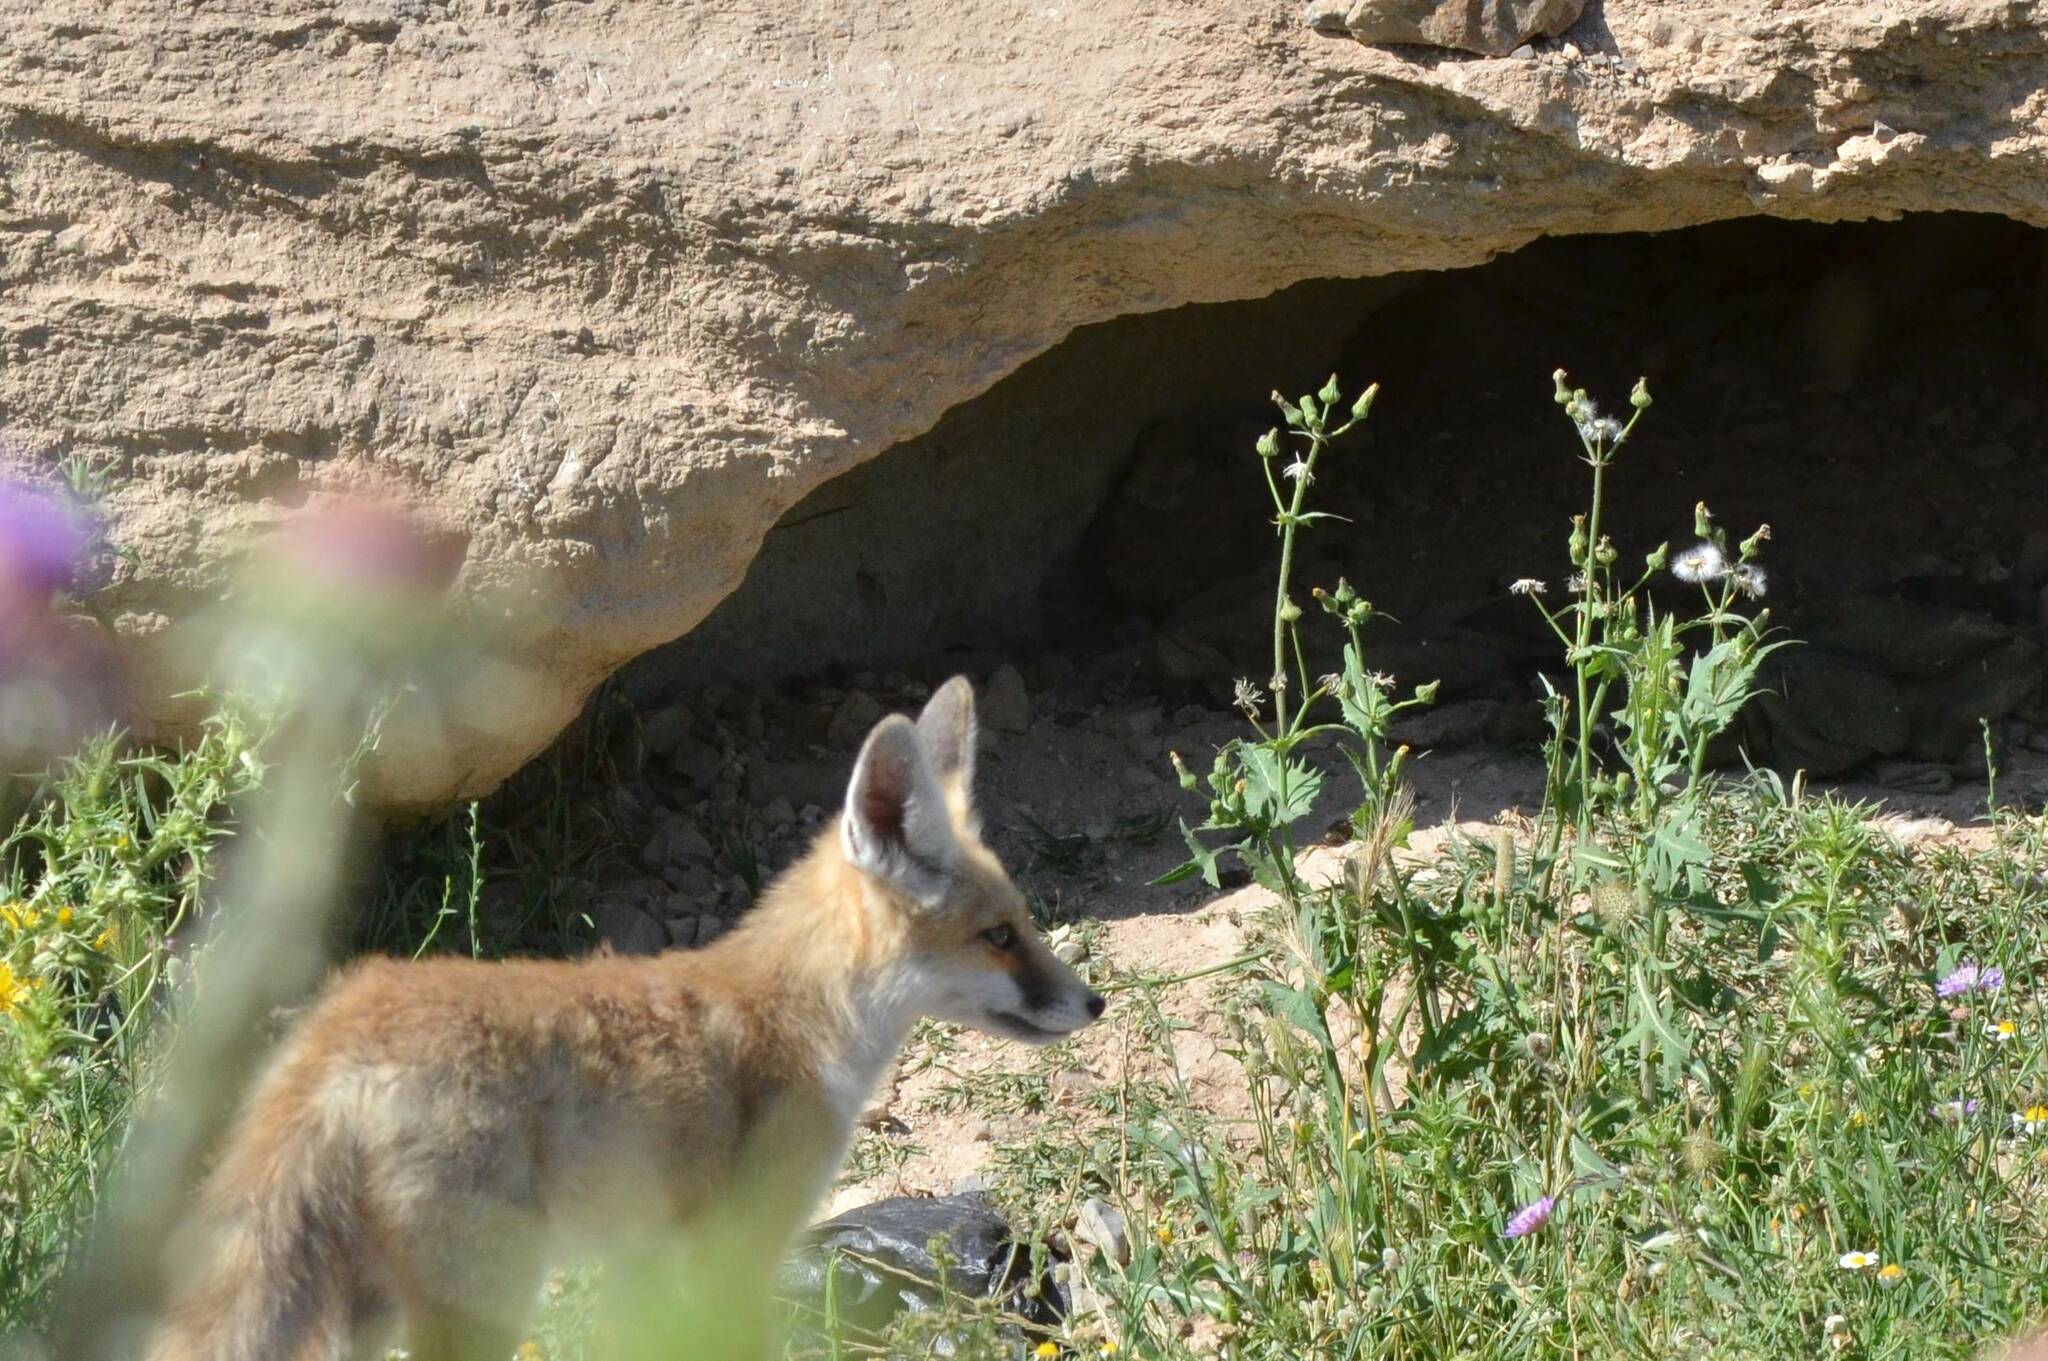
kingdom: Animalia
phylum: Chordata
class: Mammalia
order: Carnivora
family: Canidae
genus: Vulpes
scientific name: Vulpes vulpes
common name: Red fox
